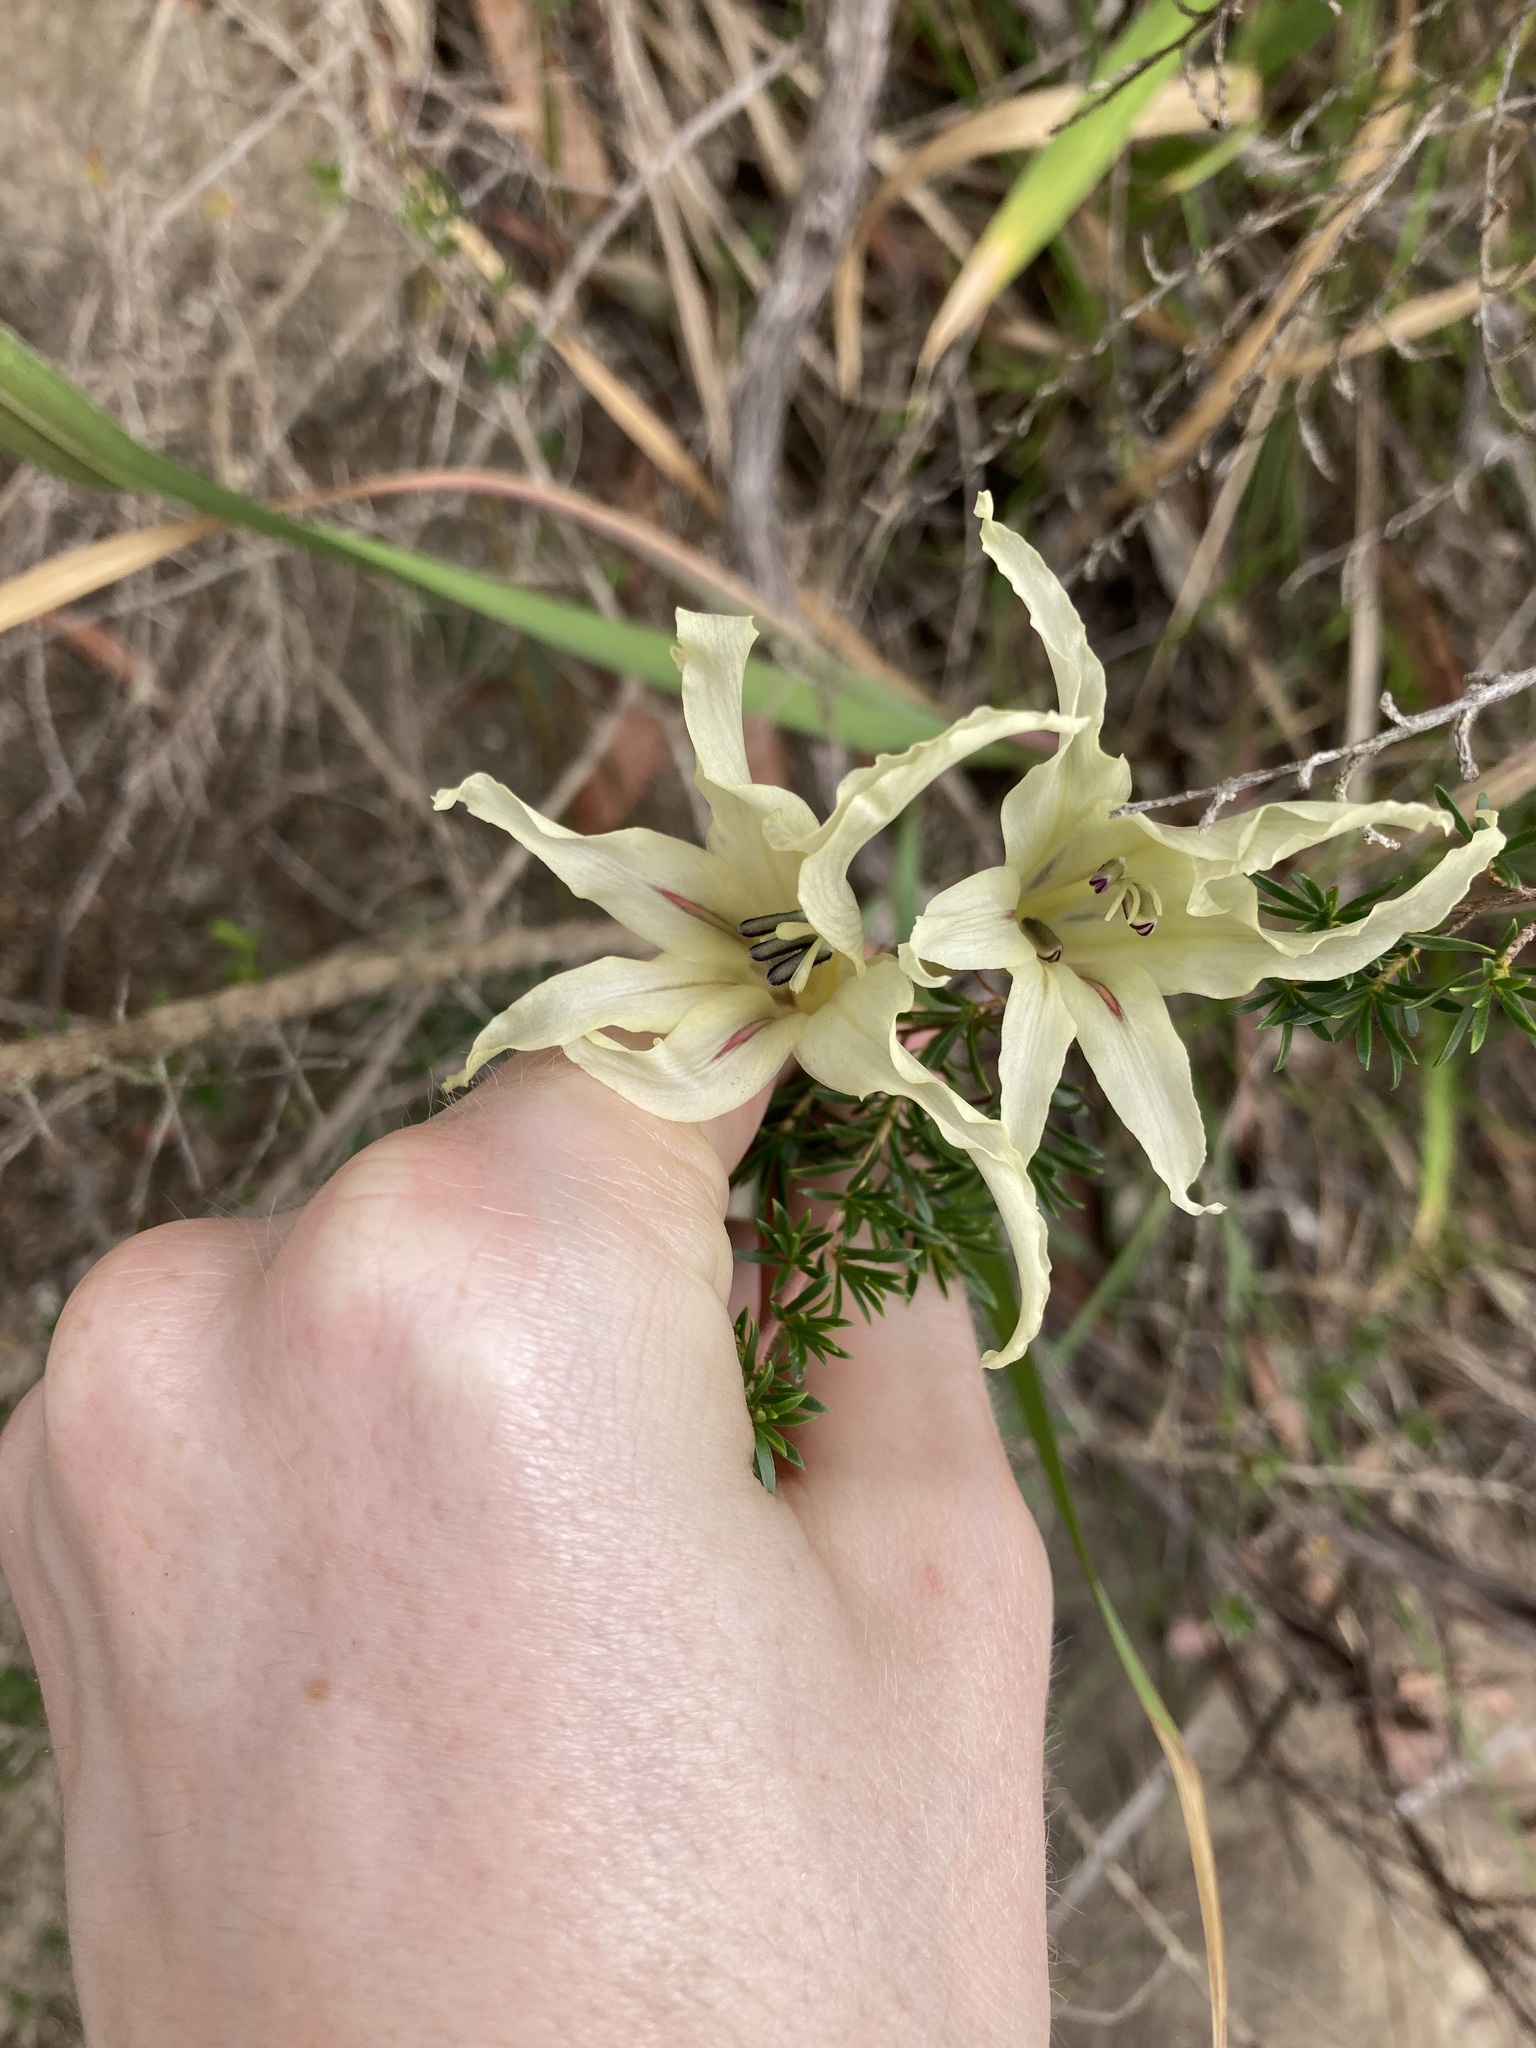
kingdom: Plantae
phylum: Tracheophyta
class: Liliopsida
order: Asparagales
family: Iridaceae
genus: Gladiolus
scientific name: Gladiolus undulatus
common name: Large painted-lady
